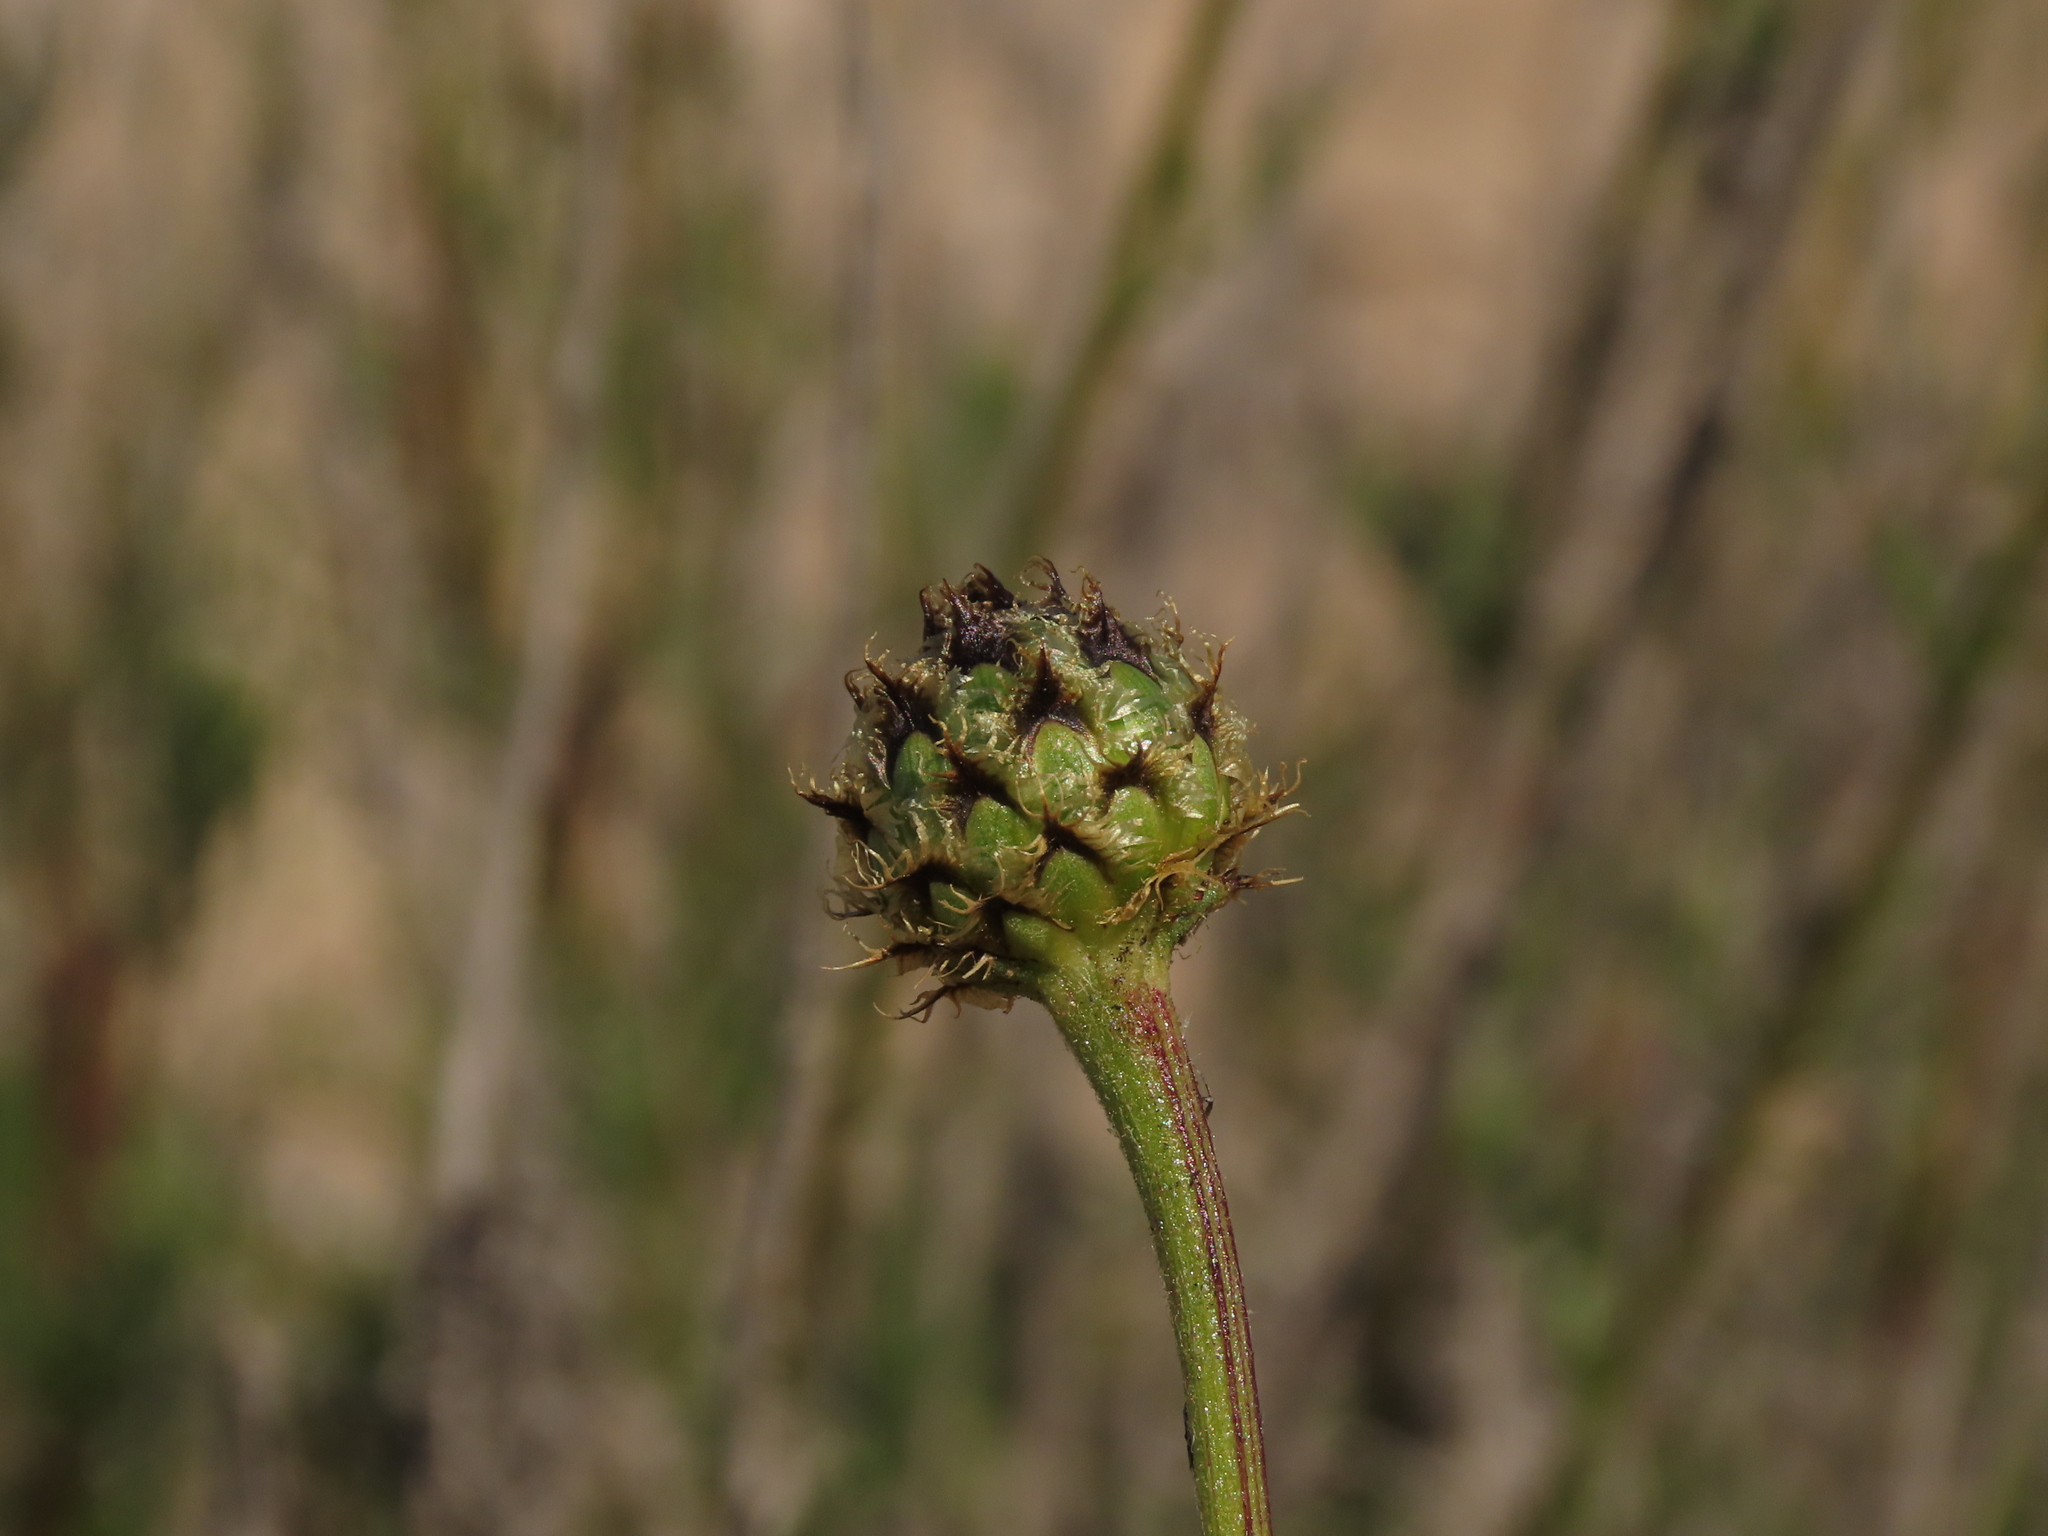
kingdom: Plantae
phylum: Tracheophyta
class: Magnoliopsida
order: Asterales
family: Asteraceae
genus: Plectocephalus
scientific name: Plectocephalus bridgesii
